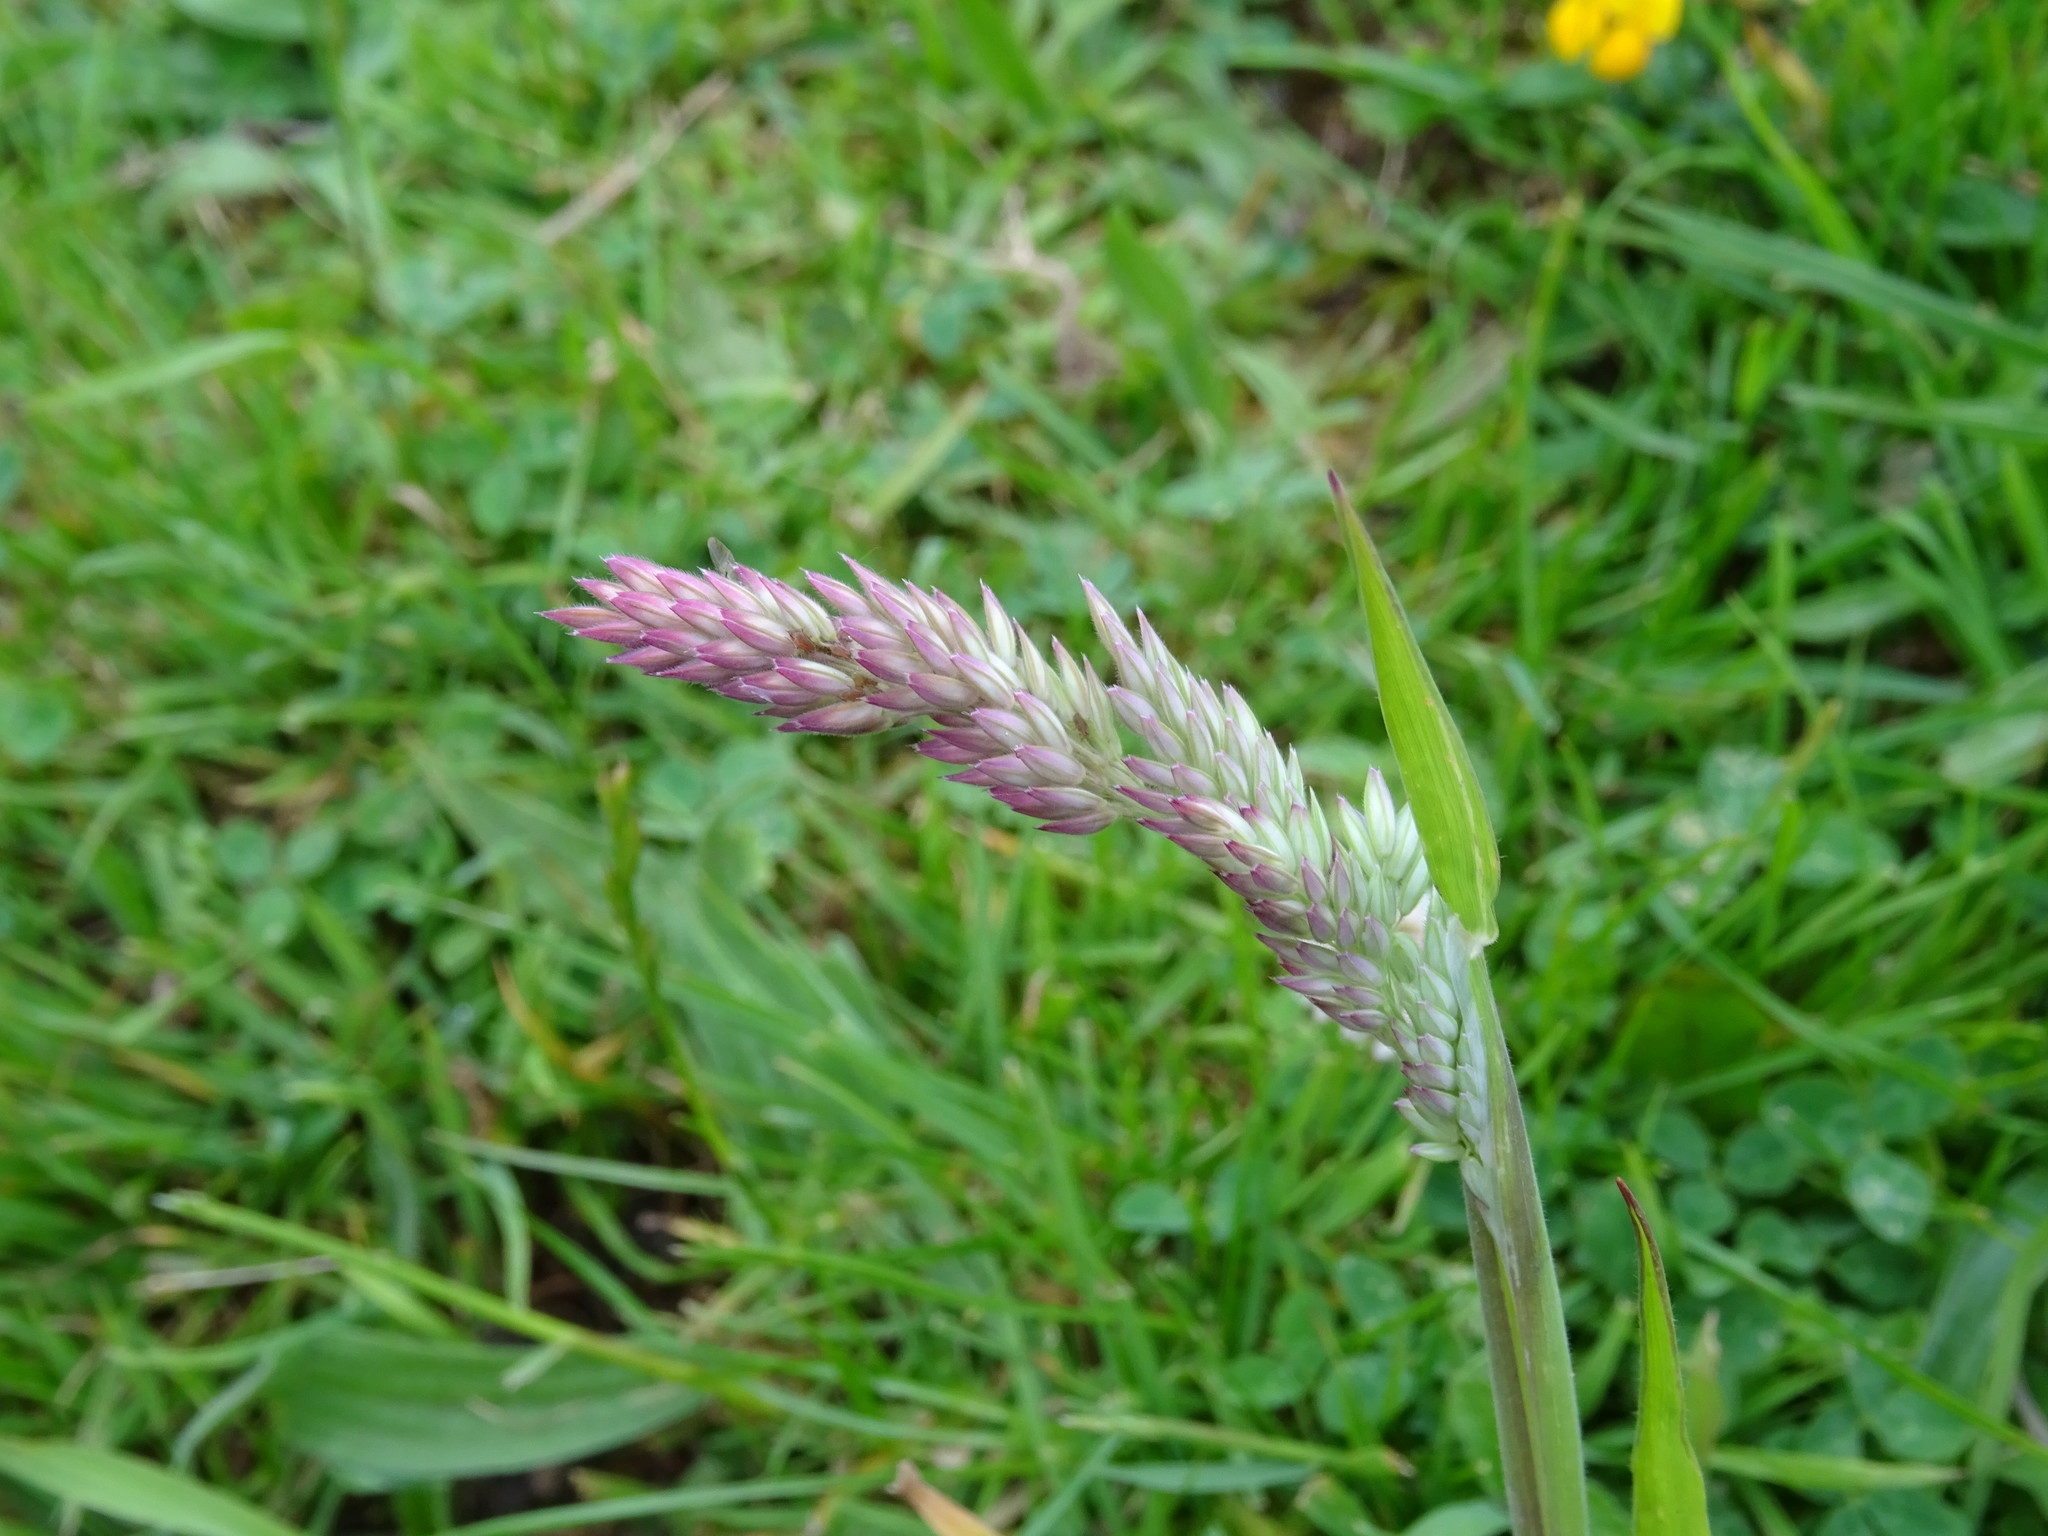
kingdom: Plantae
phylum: Tracheophyta
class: Liliopsida
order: Poales
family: Poaceae
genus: Holcus
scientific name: Holcus lanatus
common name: Yorkshire-fog
